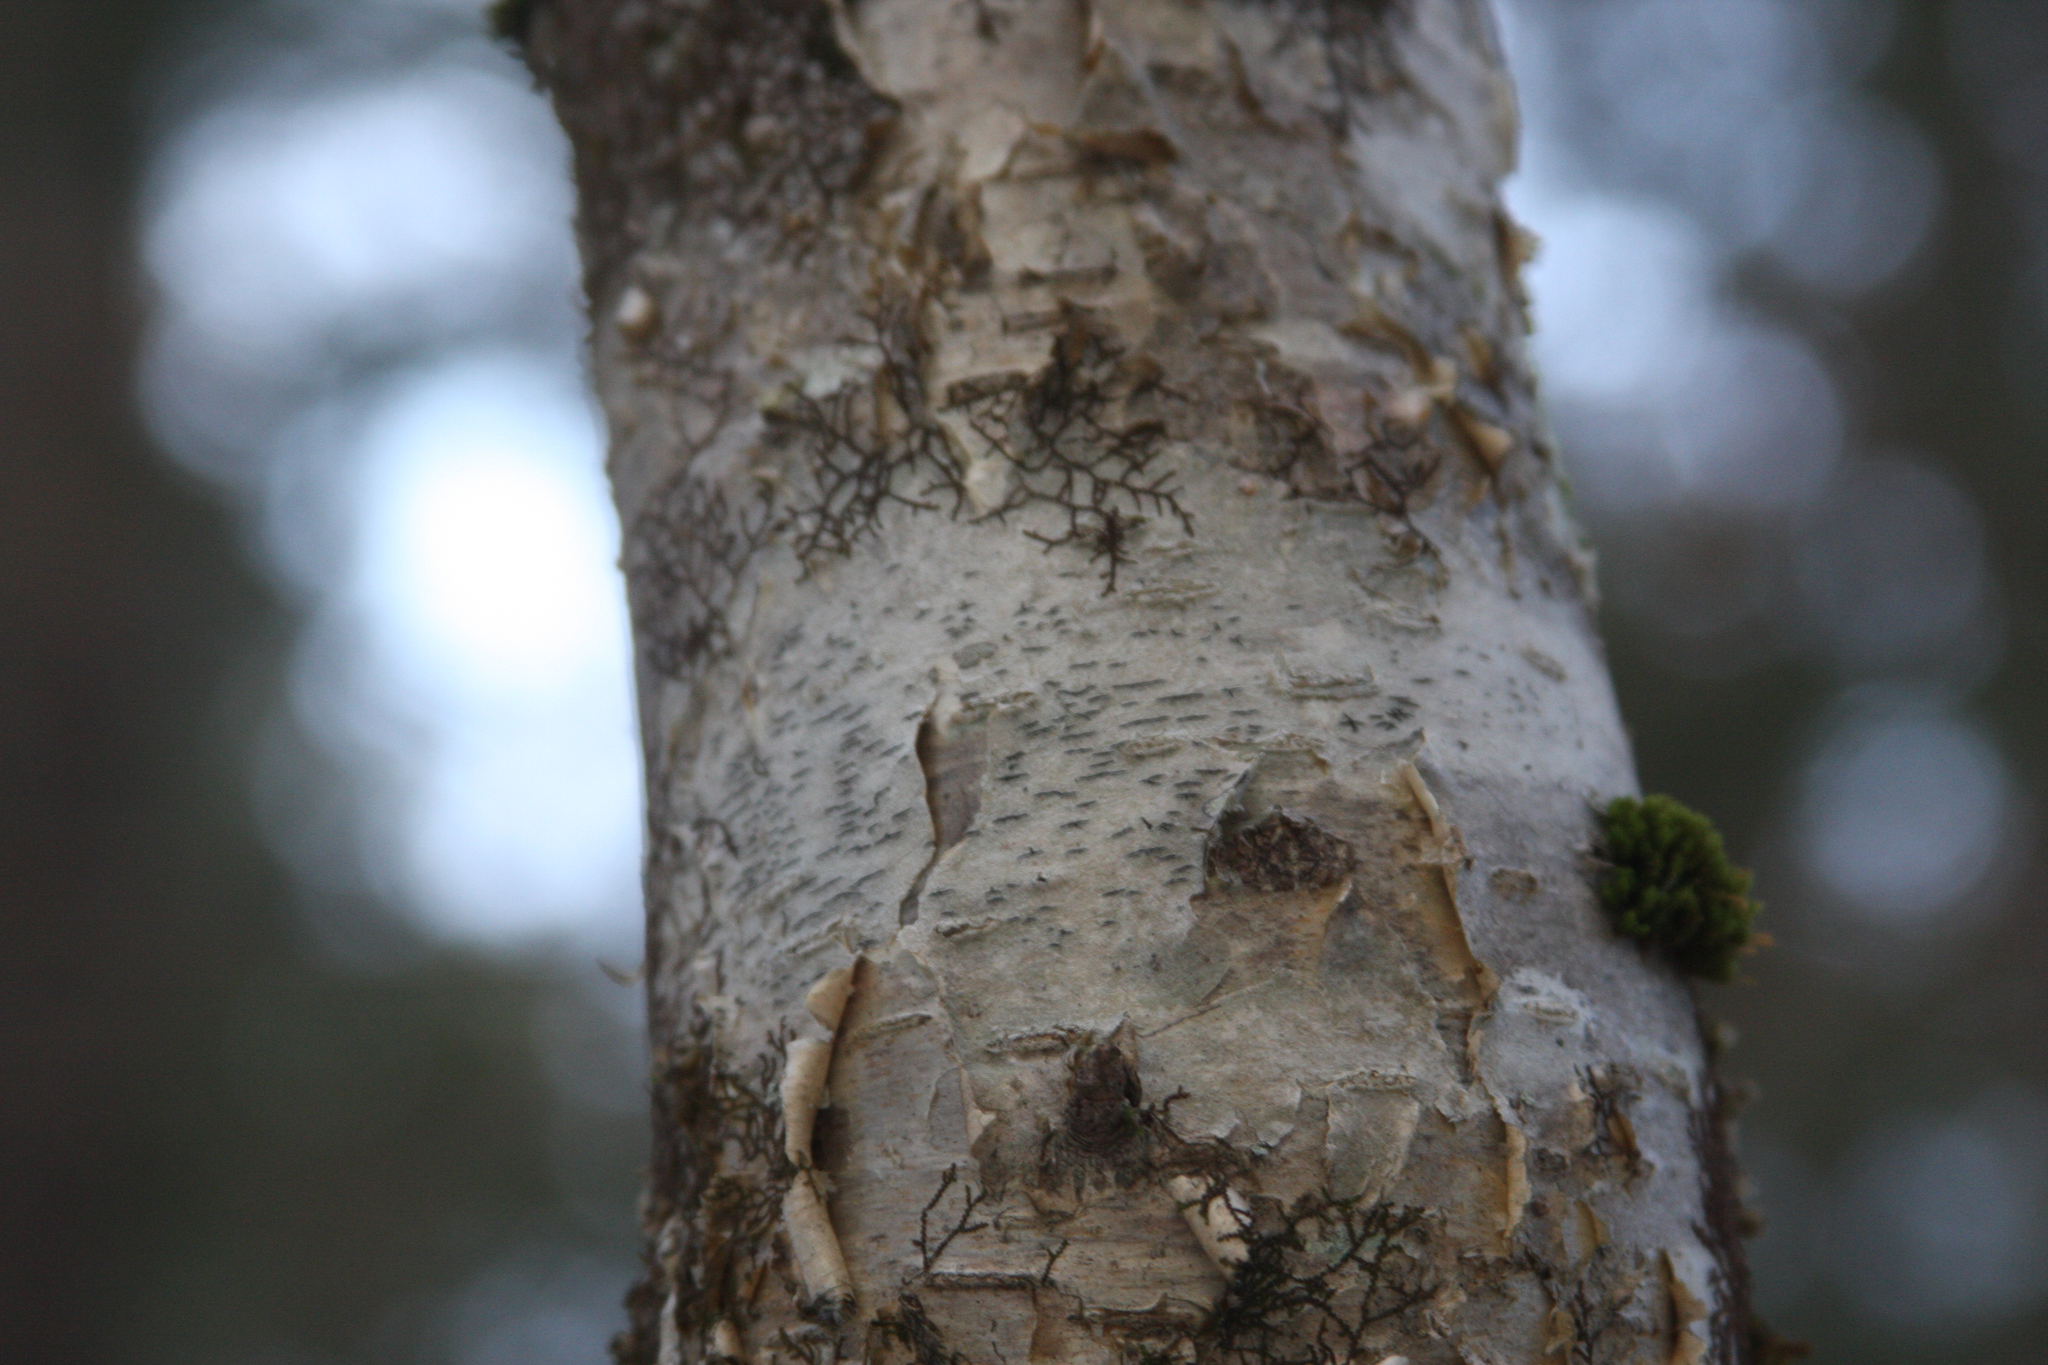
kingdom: Plantae
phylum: Tracheophyta
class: Magnoliopsida
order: Fagales
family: Betulaceae
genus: Betula
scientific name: Betula alleghaniensis
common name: Yellow birch
